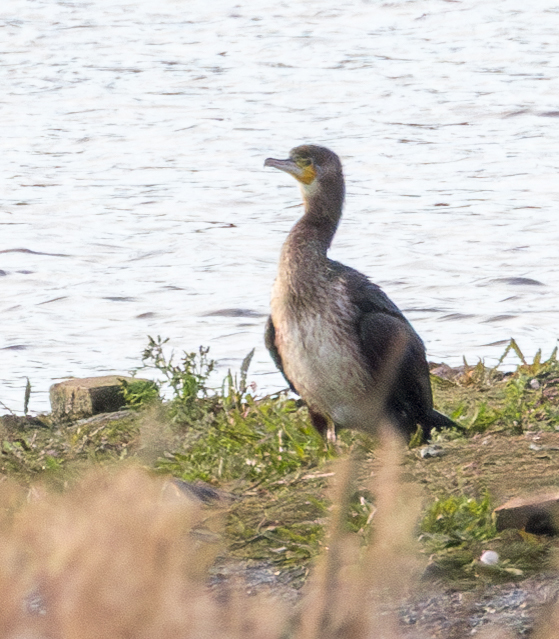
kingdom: Animalia
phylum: Chordata
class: Aves
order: Suliformes
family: Phalacrocoracidae
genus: Phalacrocorax
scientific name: Phalacrocorax carbo
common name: Great cormorant
